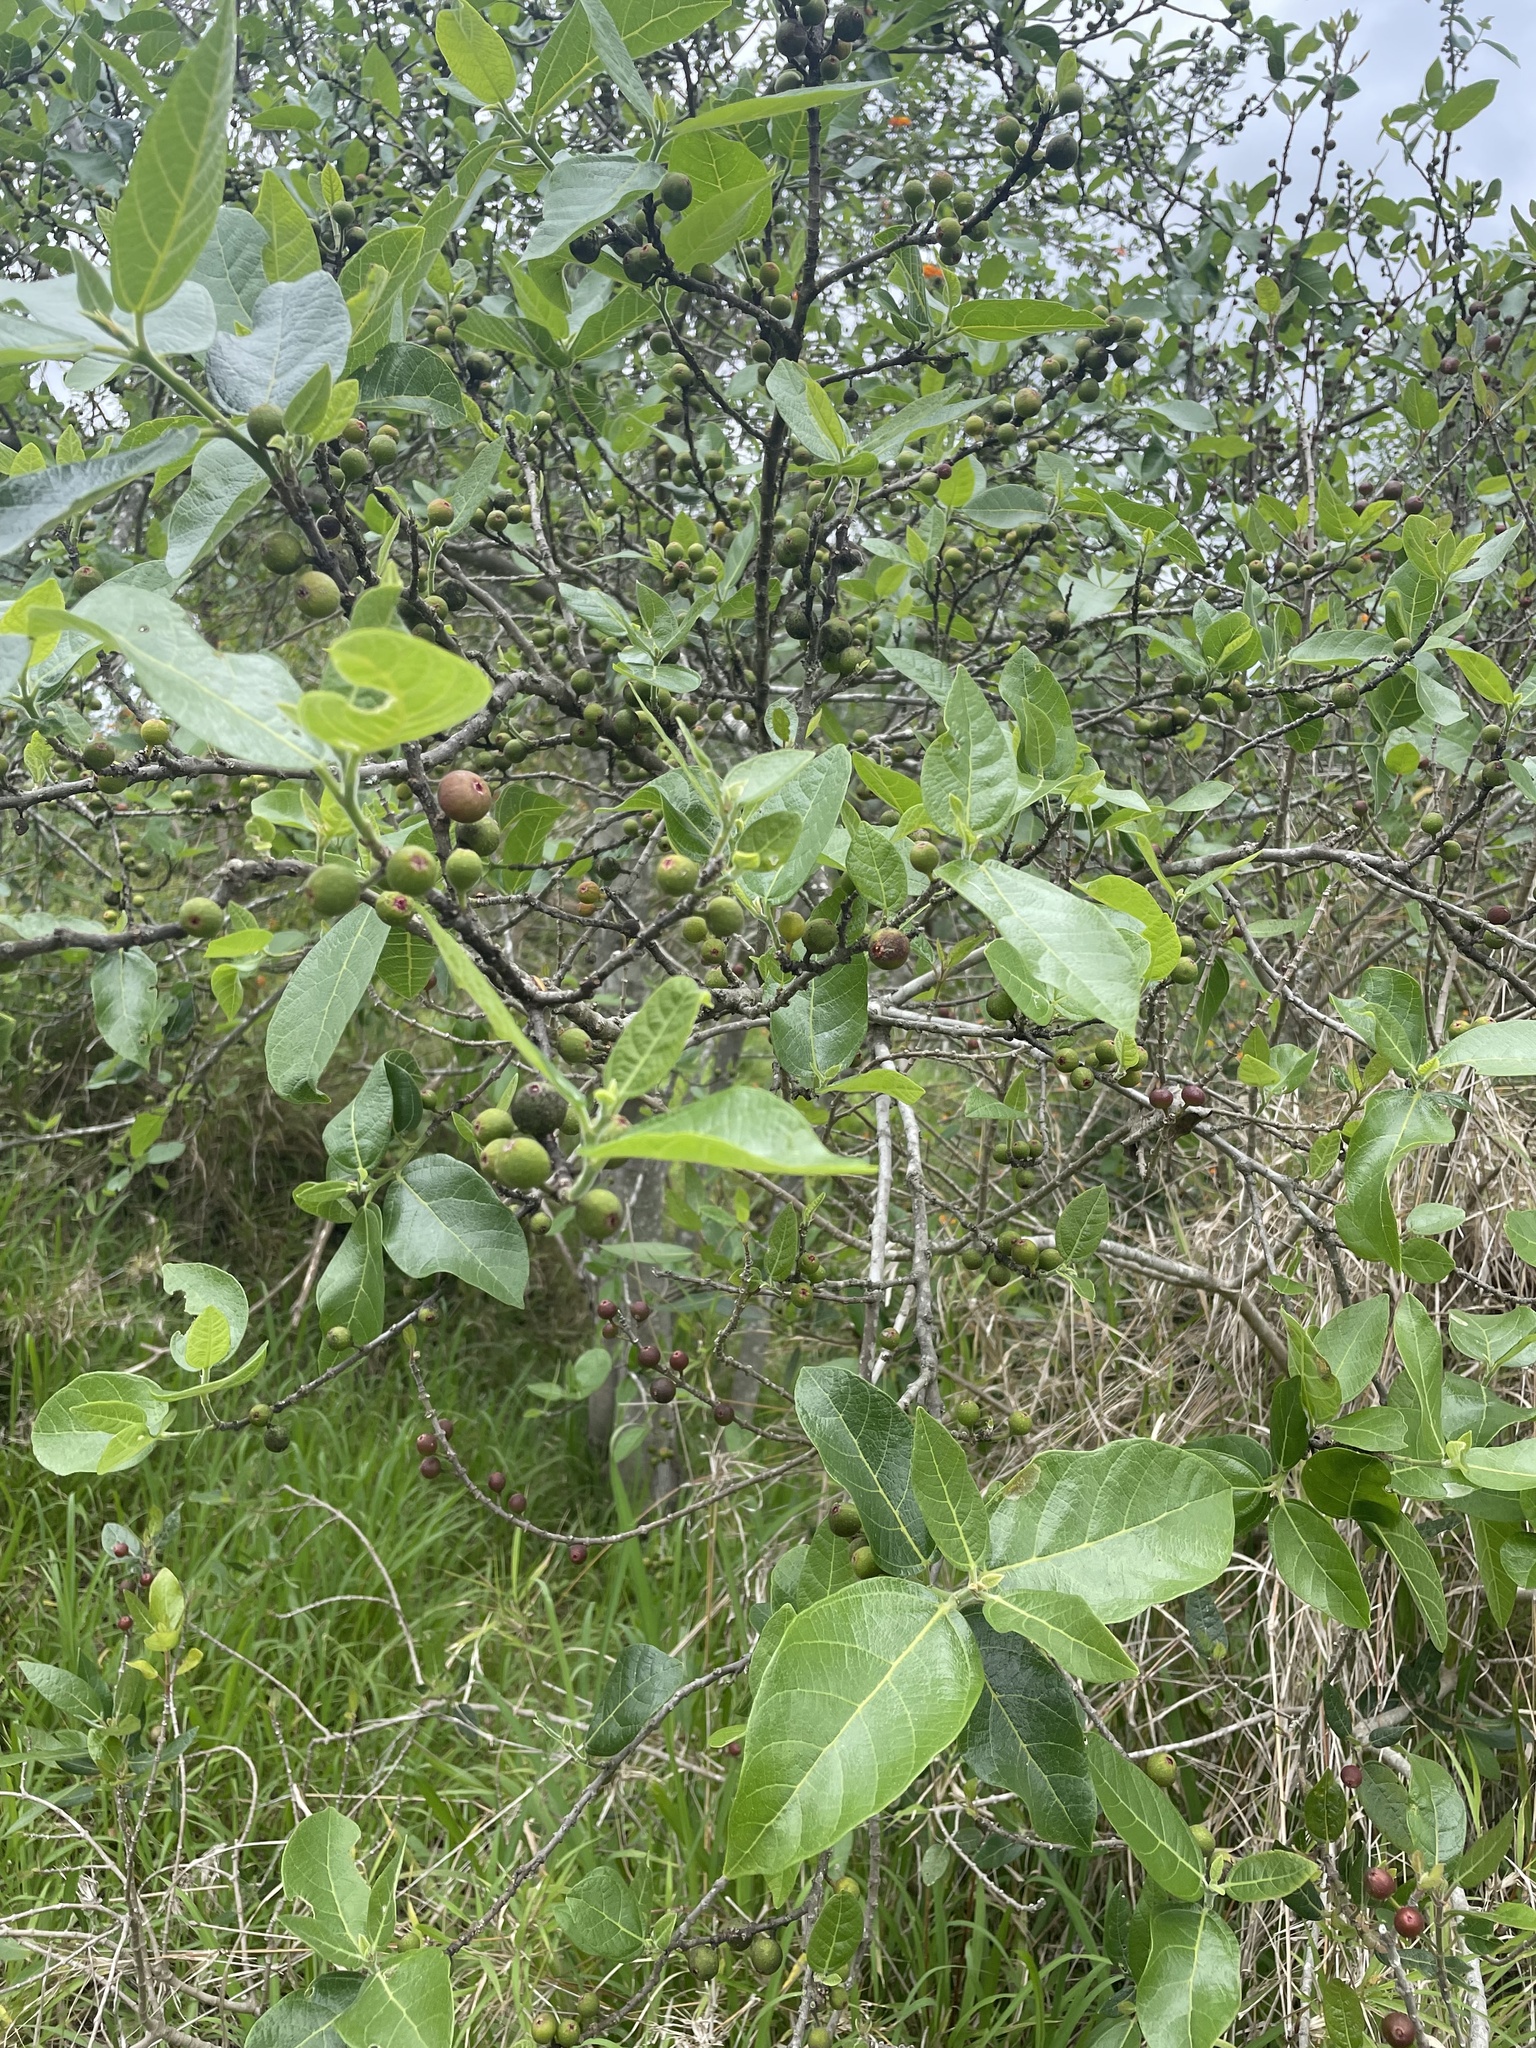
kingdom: Plantae
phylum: Tracheophyta
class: Magnoliopsida
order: Rosales
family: Moraceae
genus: Ficus
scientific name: Ficus opposita
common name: Figwood
